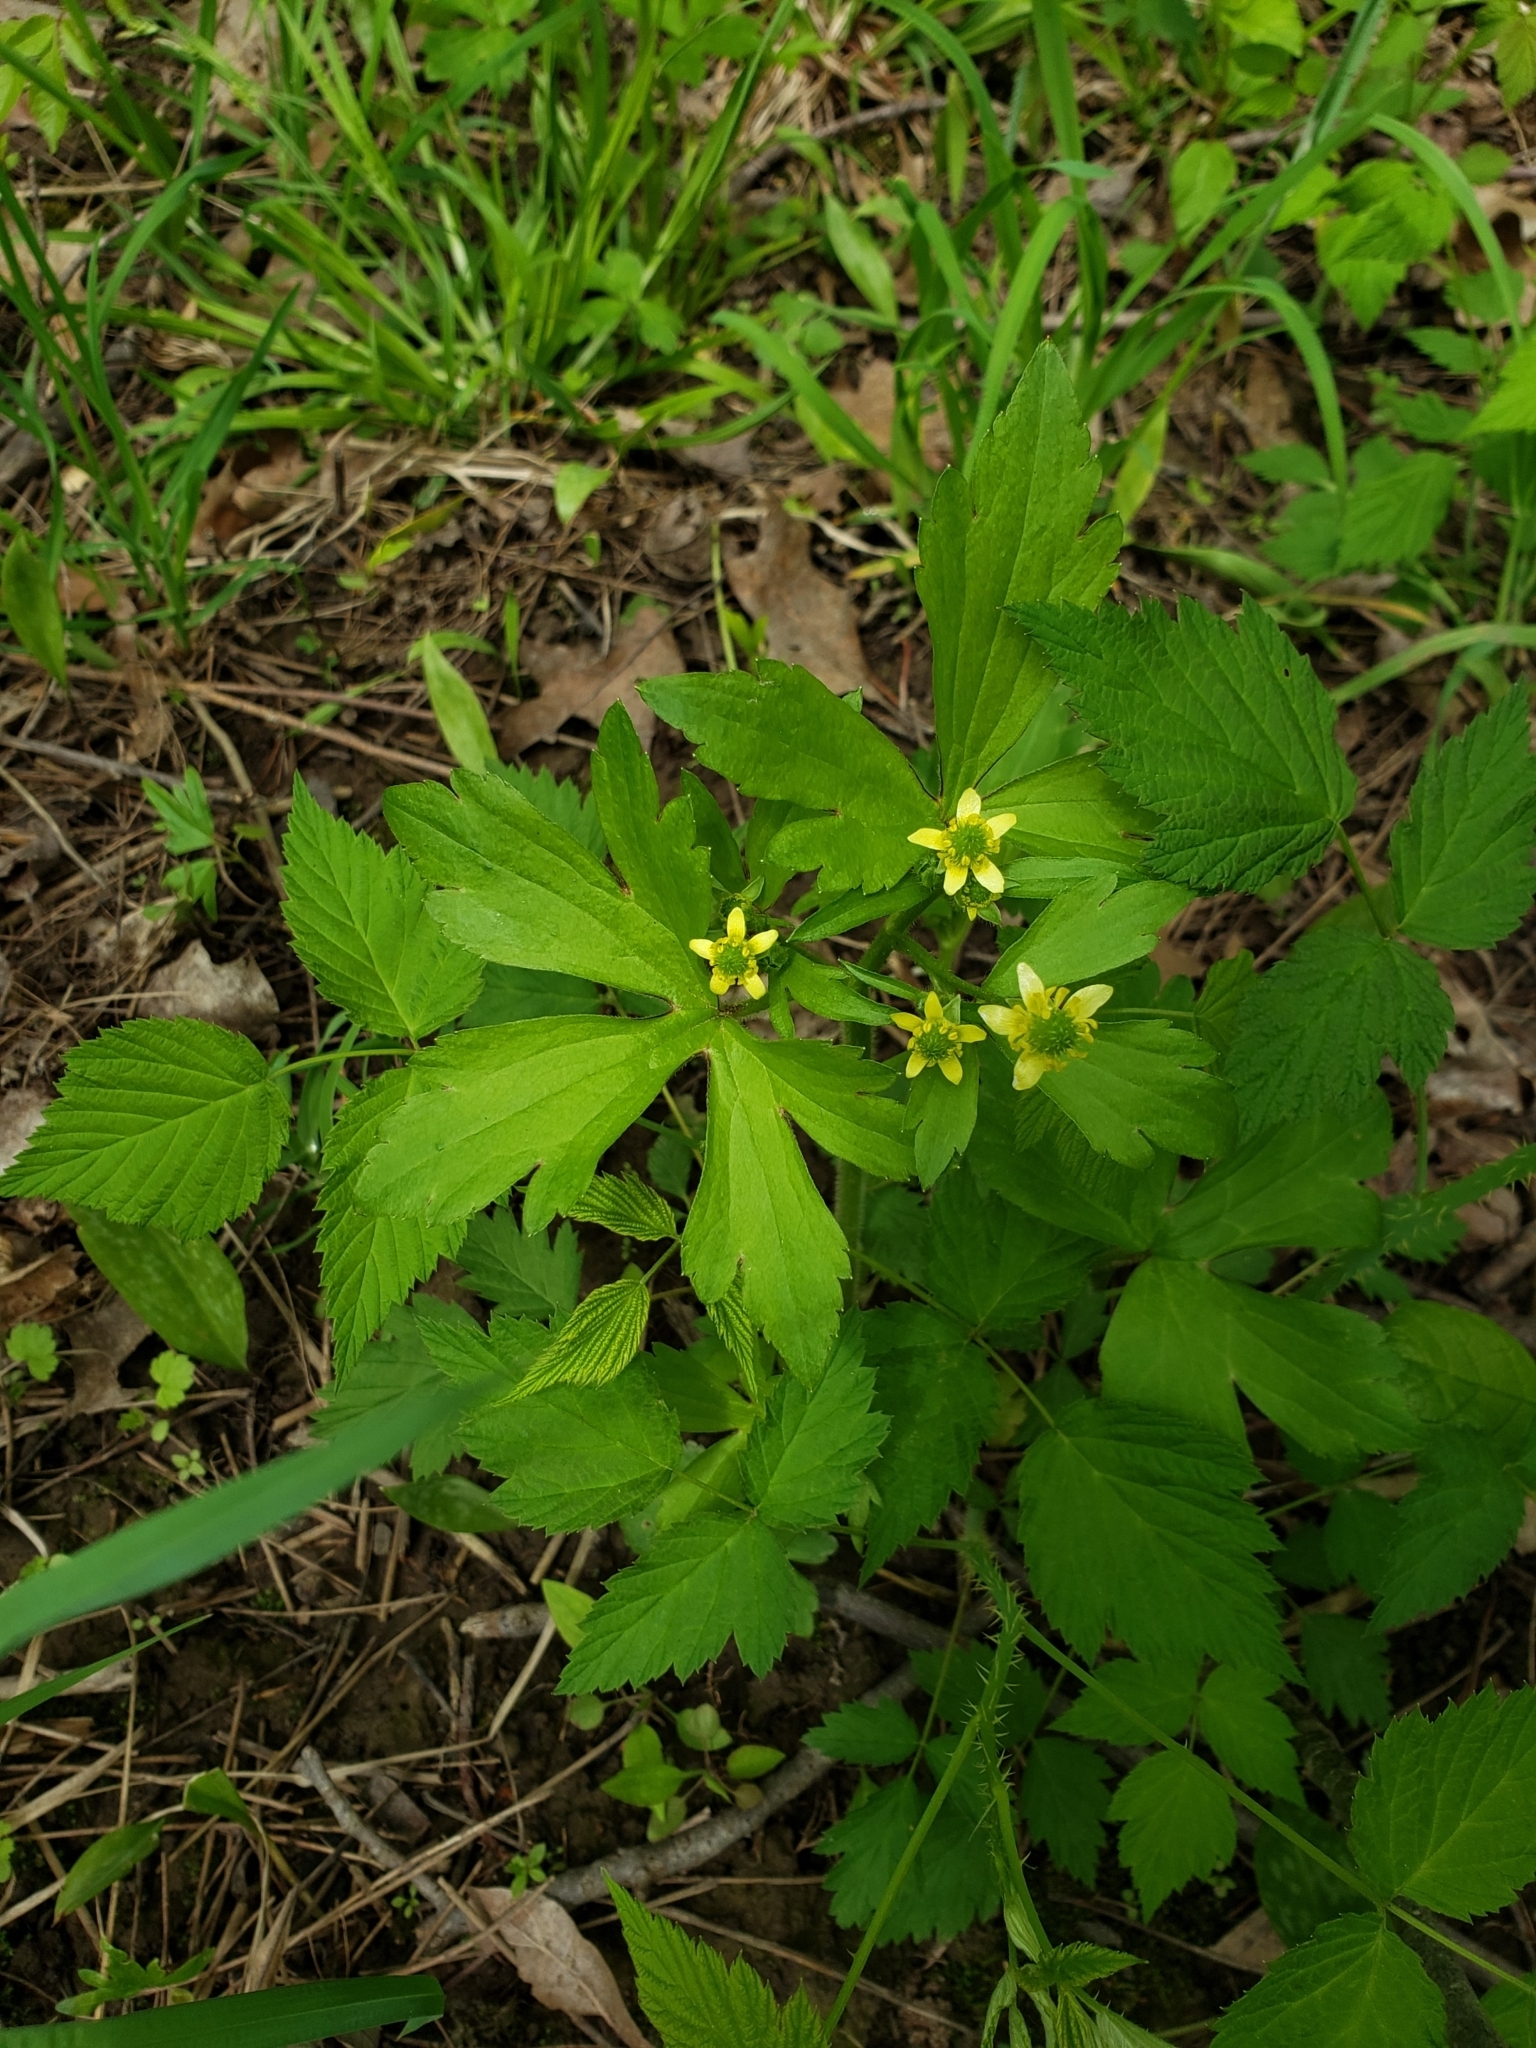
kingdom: Plantae
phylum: Tracheophyta
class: Magnoliopsida
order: Ranunculales
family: Ranunculaceae
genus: Ranunculus
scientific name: Ranunculus recurvatus
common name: Blisterwort
